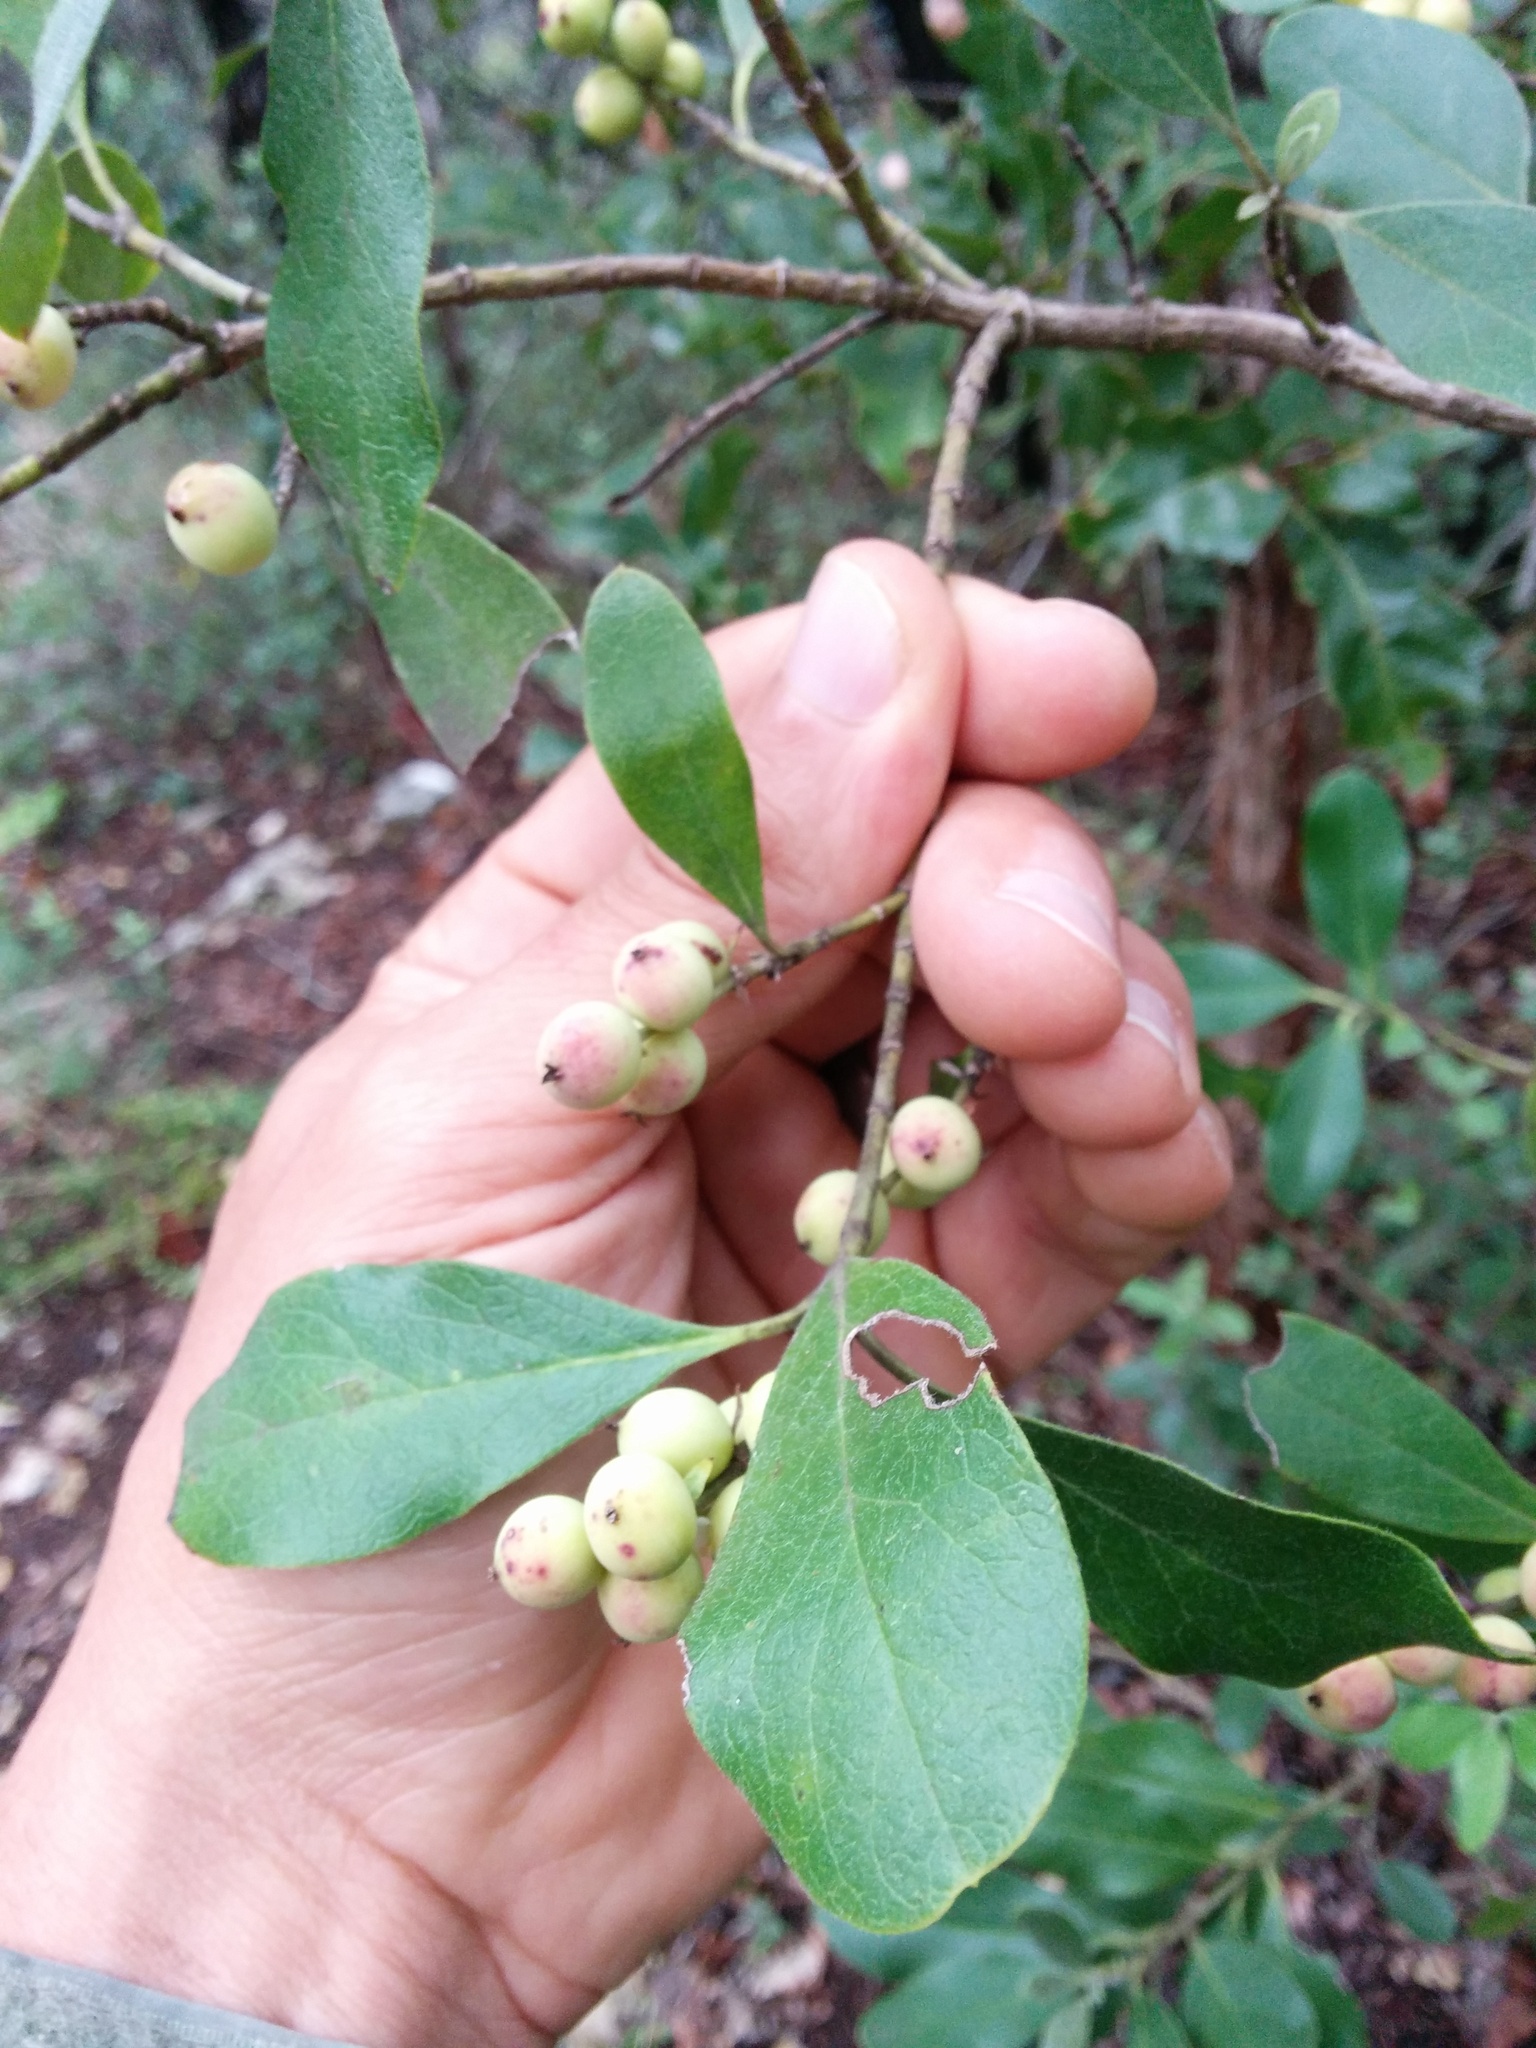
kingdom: Plantae
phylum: Tracheophyta
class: Magnoliopsida
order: Garryales
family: Garryaceae
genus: Garrya
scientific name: Garrya lindheimeri
